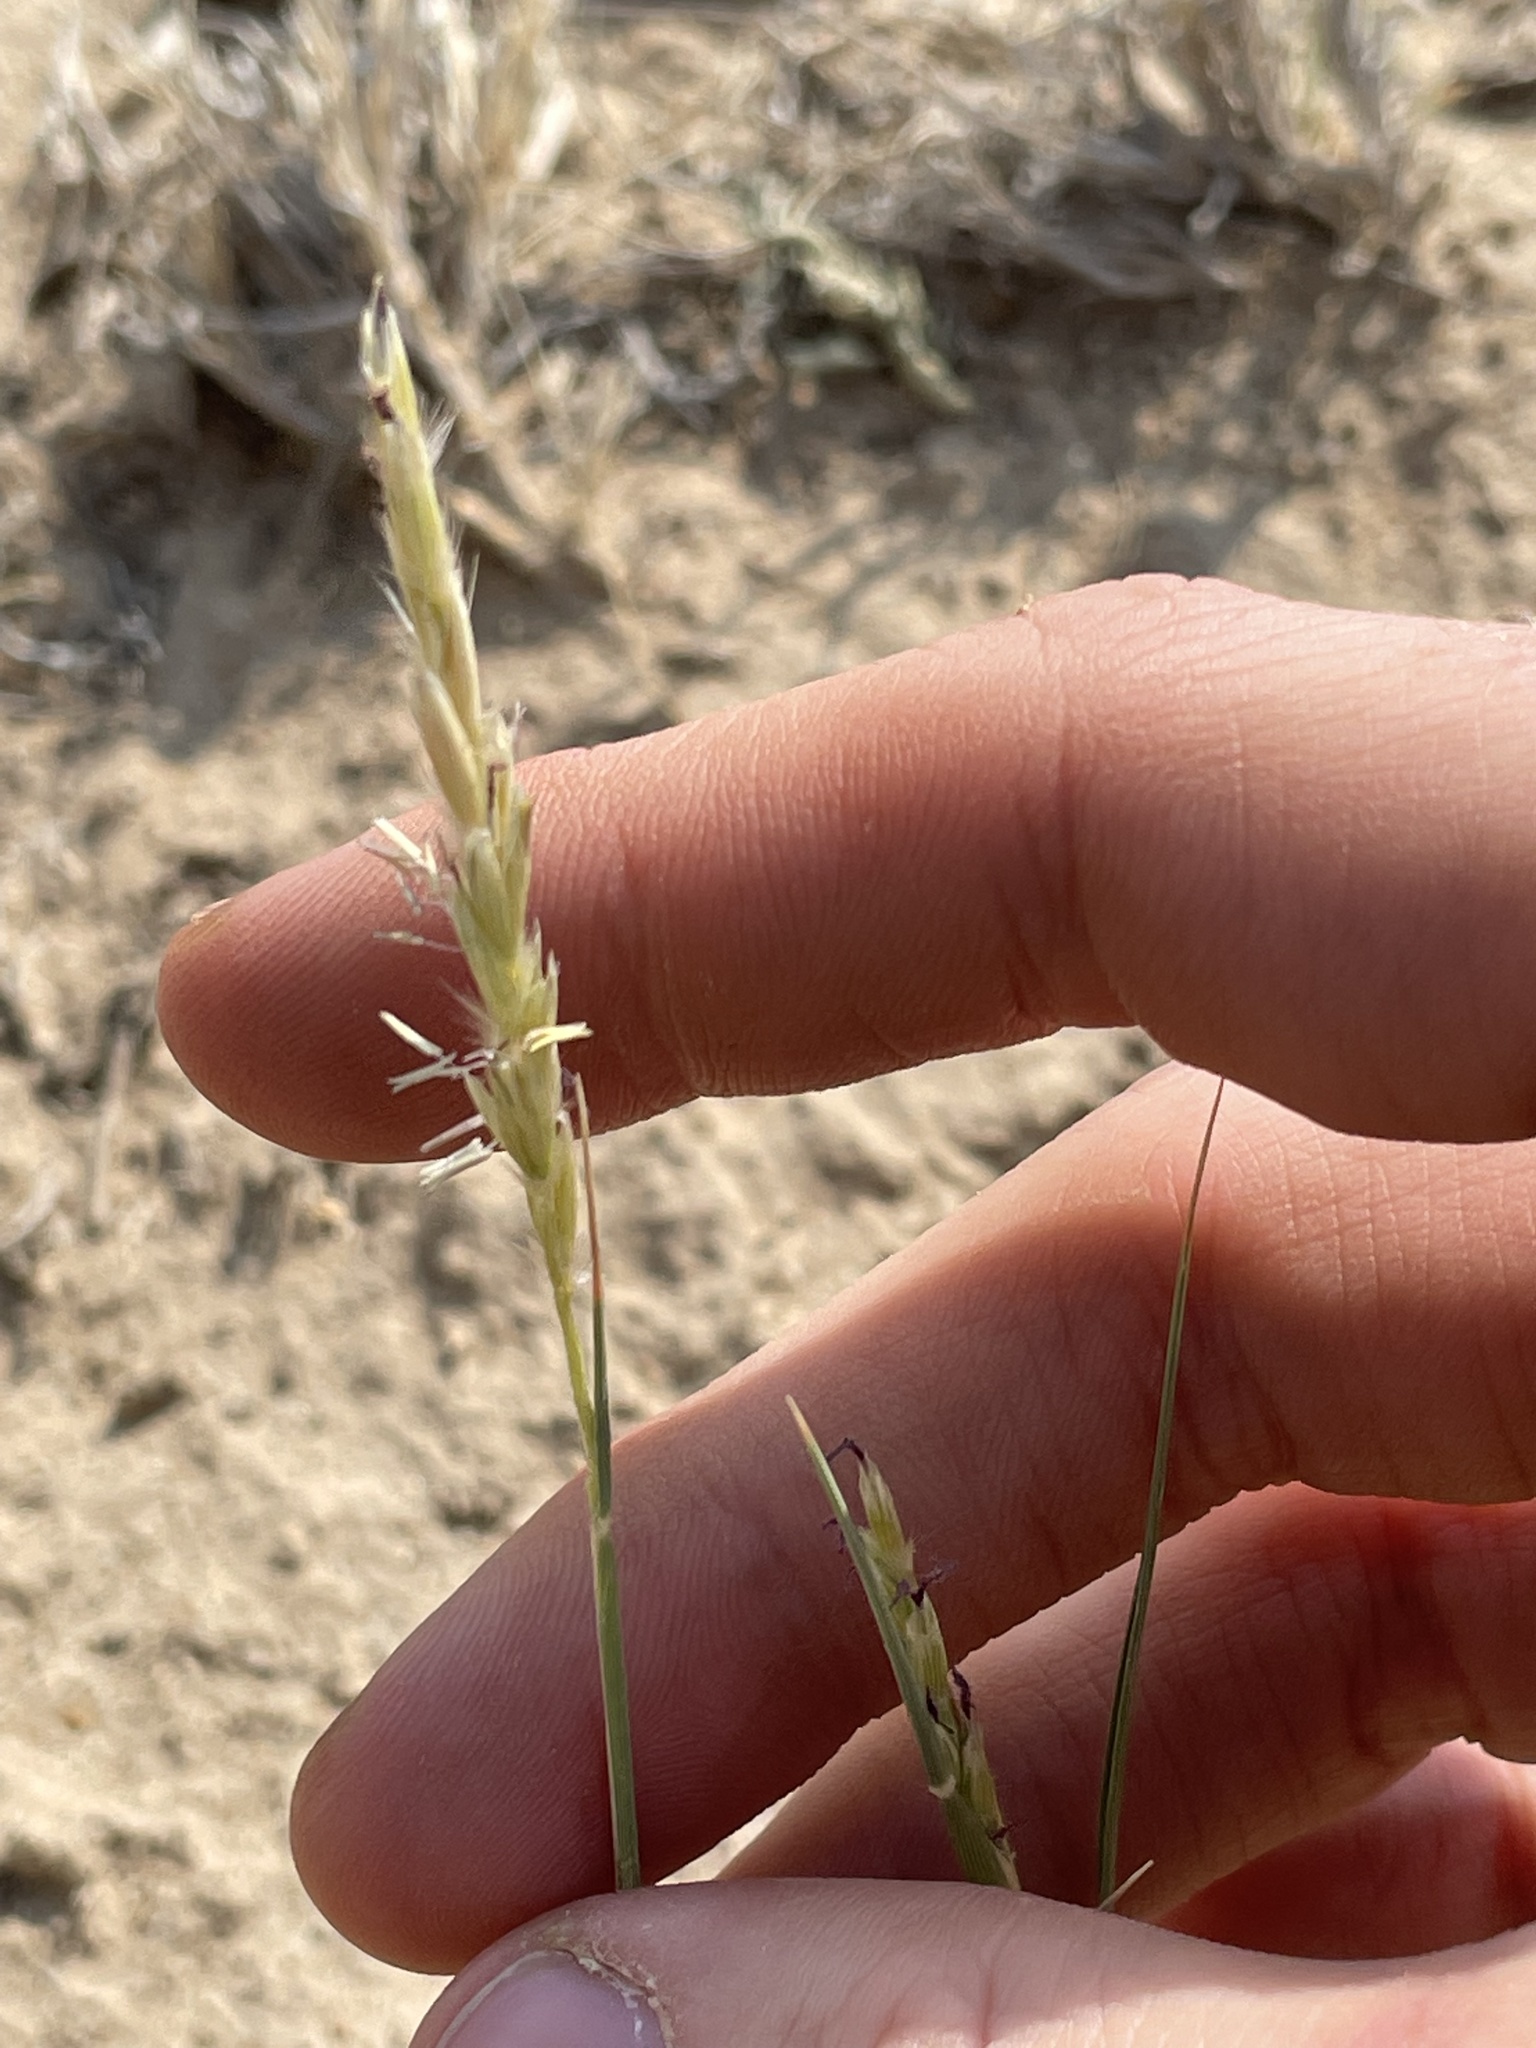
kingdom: Plantae
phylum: Tracheophyta
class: Liliopsida
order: Poales
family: Poaceae
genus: Hilaria
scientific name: Hilaria jamesii
